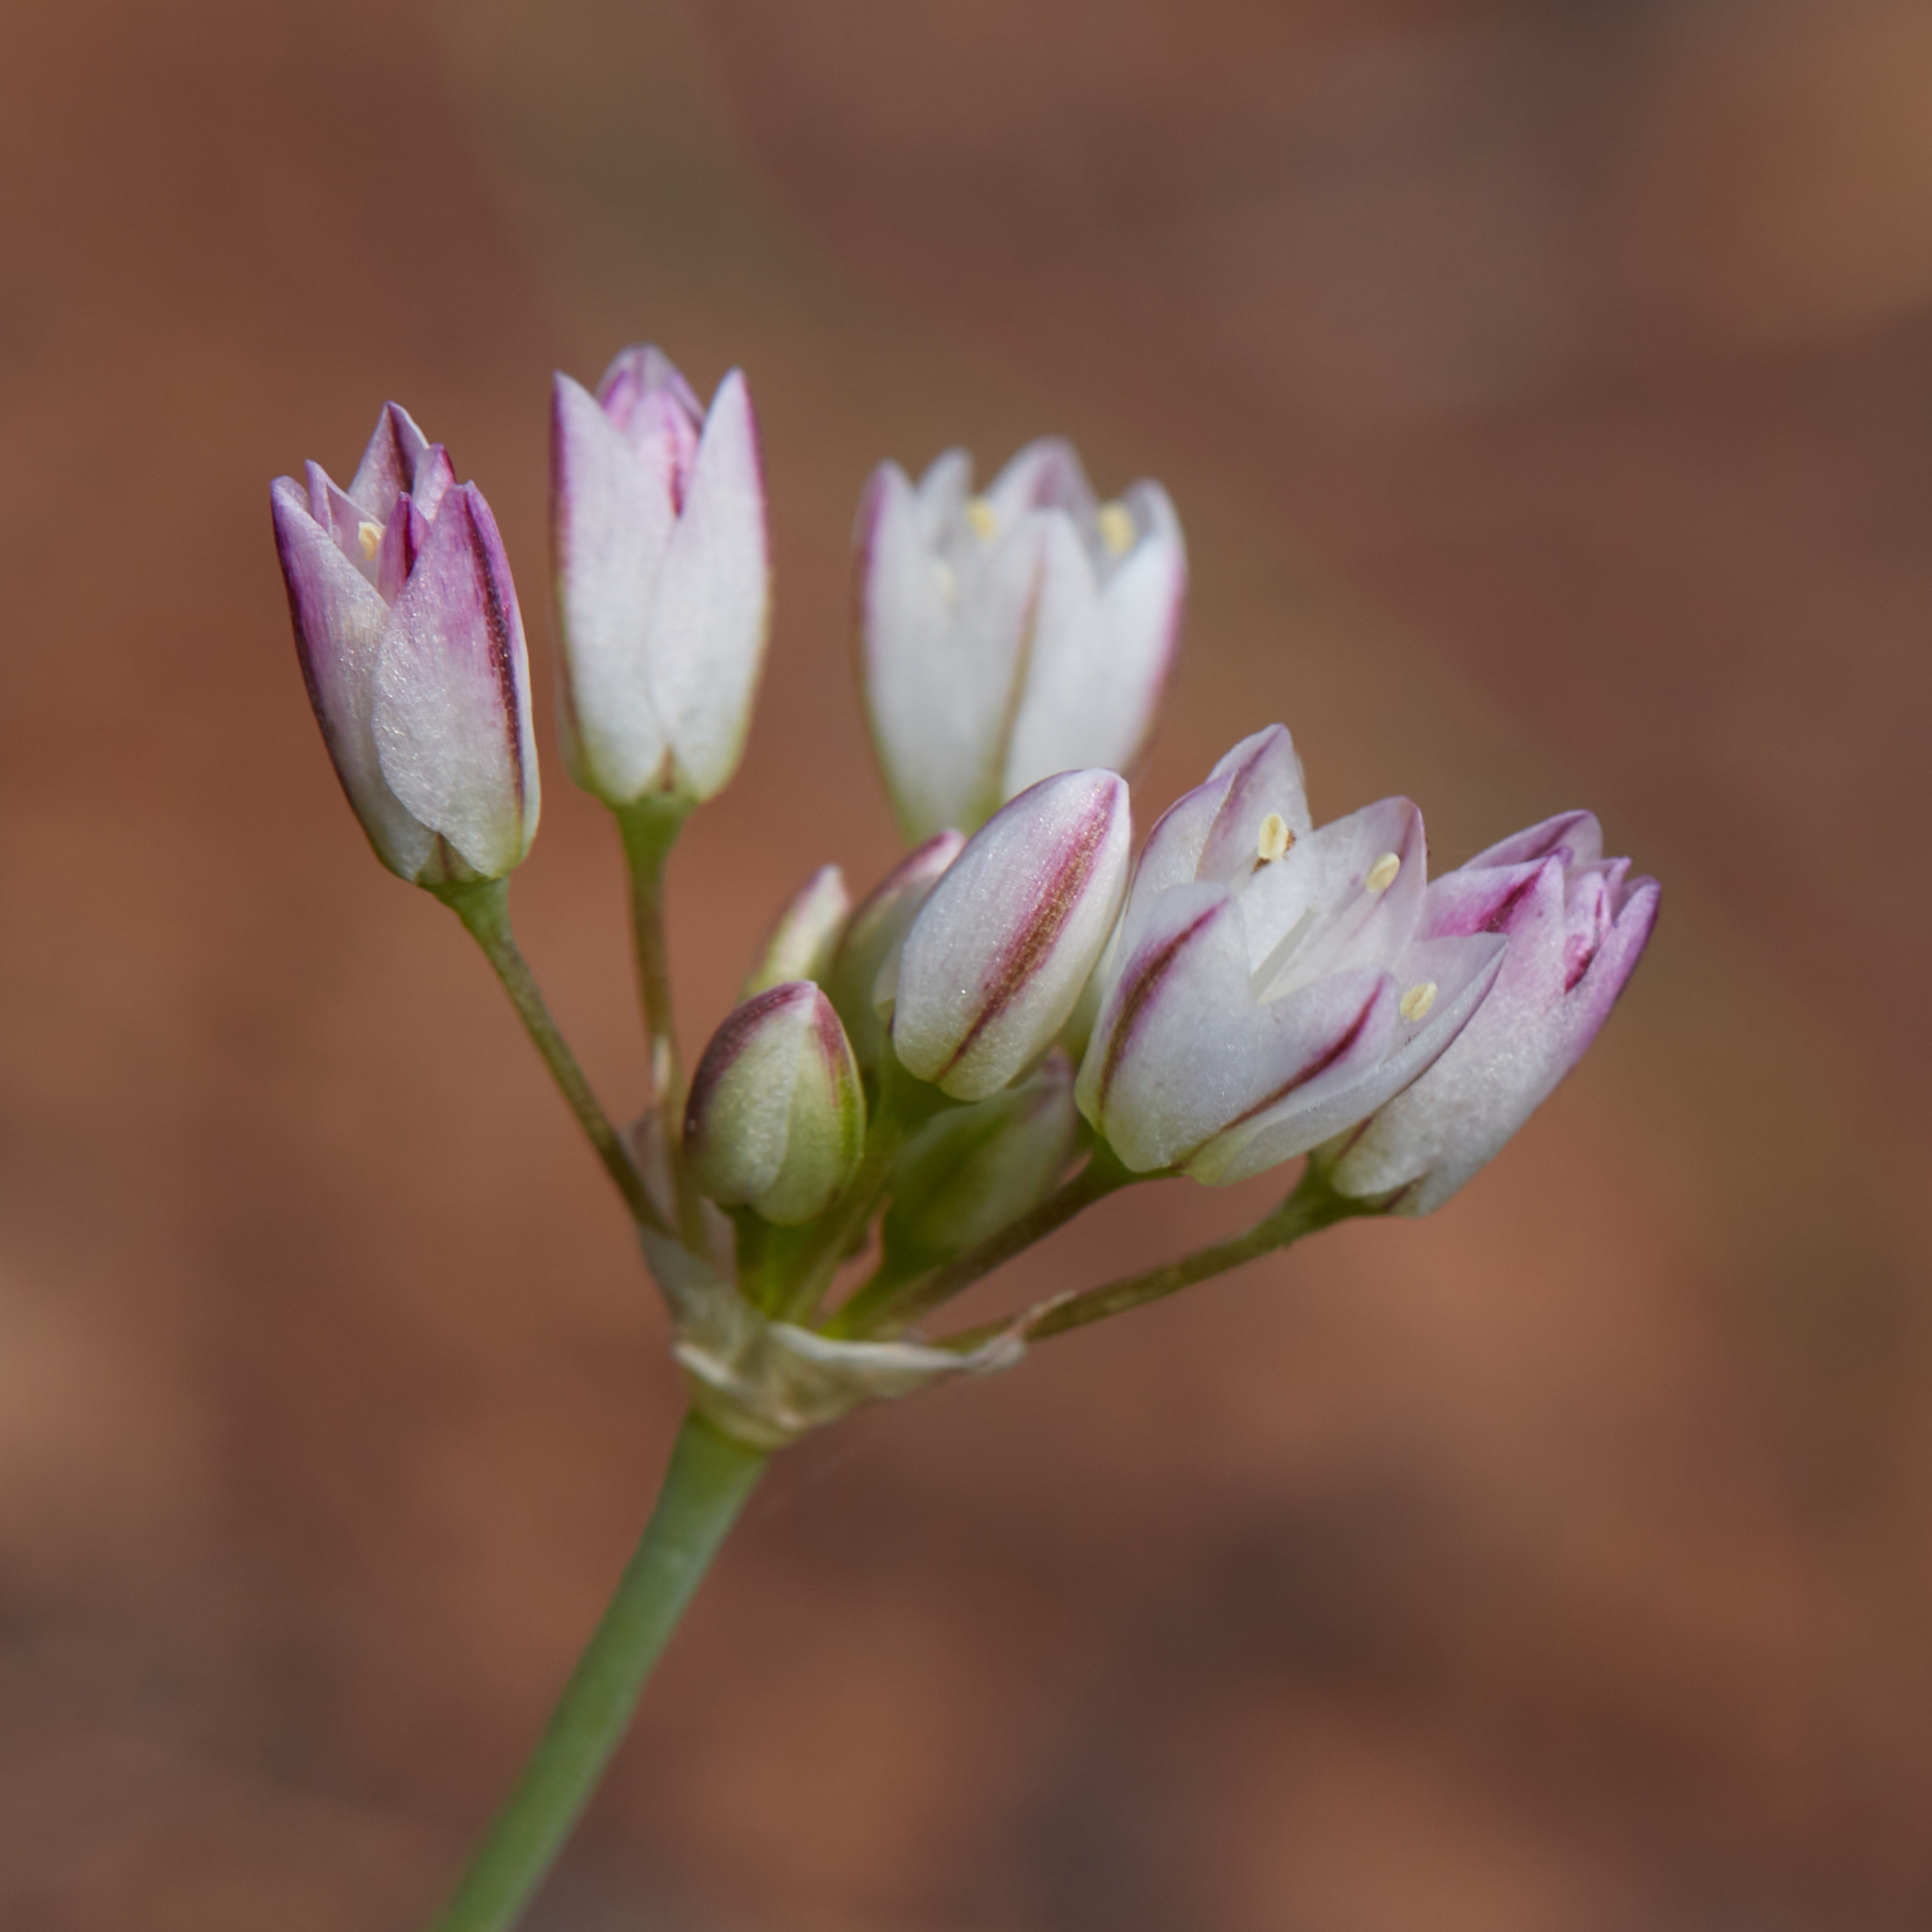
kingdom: Plantae
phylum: Tracheophyta
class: Liliopsida
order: Asparagales
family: Amaryllidaceae
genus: Allium
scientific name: Allium diabolense
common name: Serpentine onion
